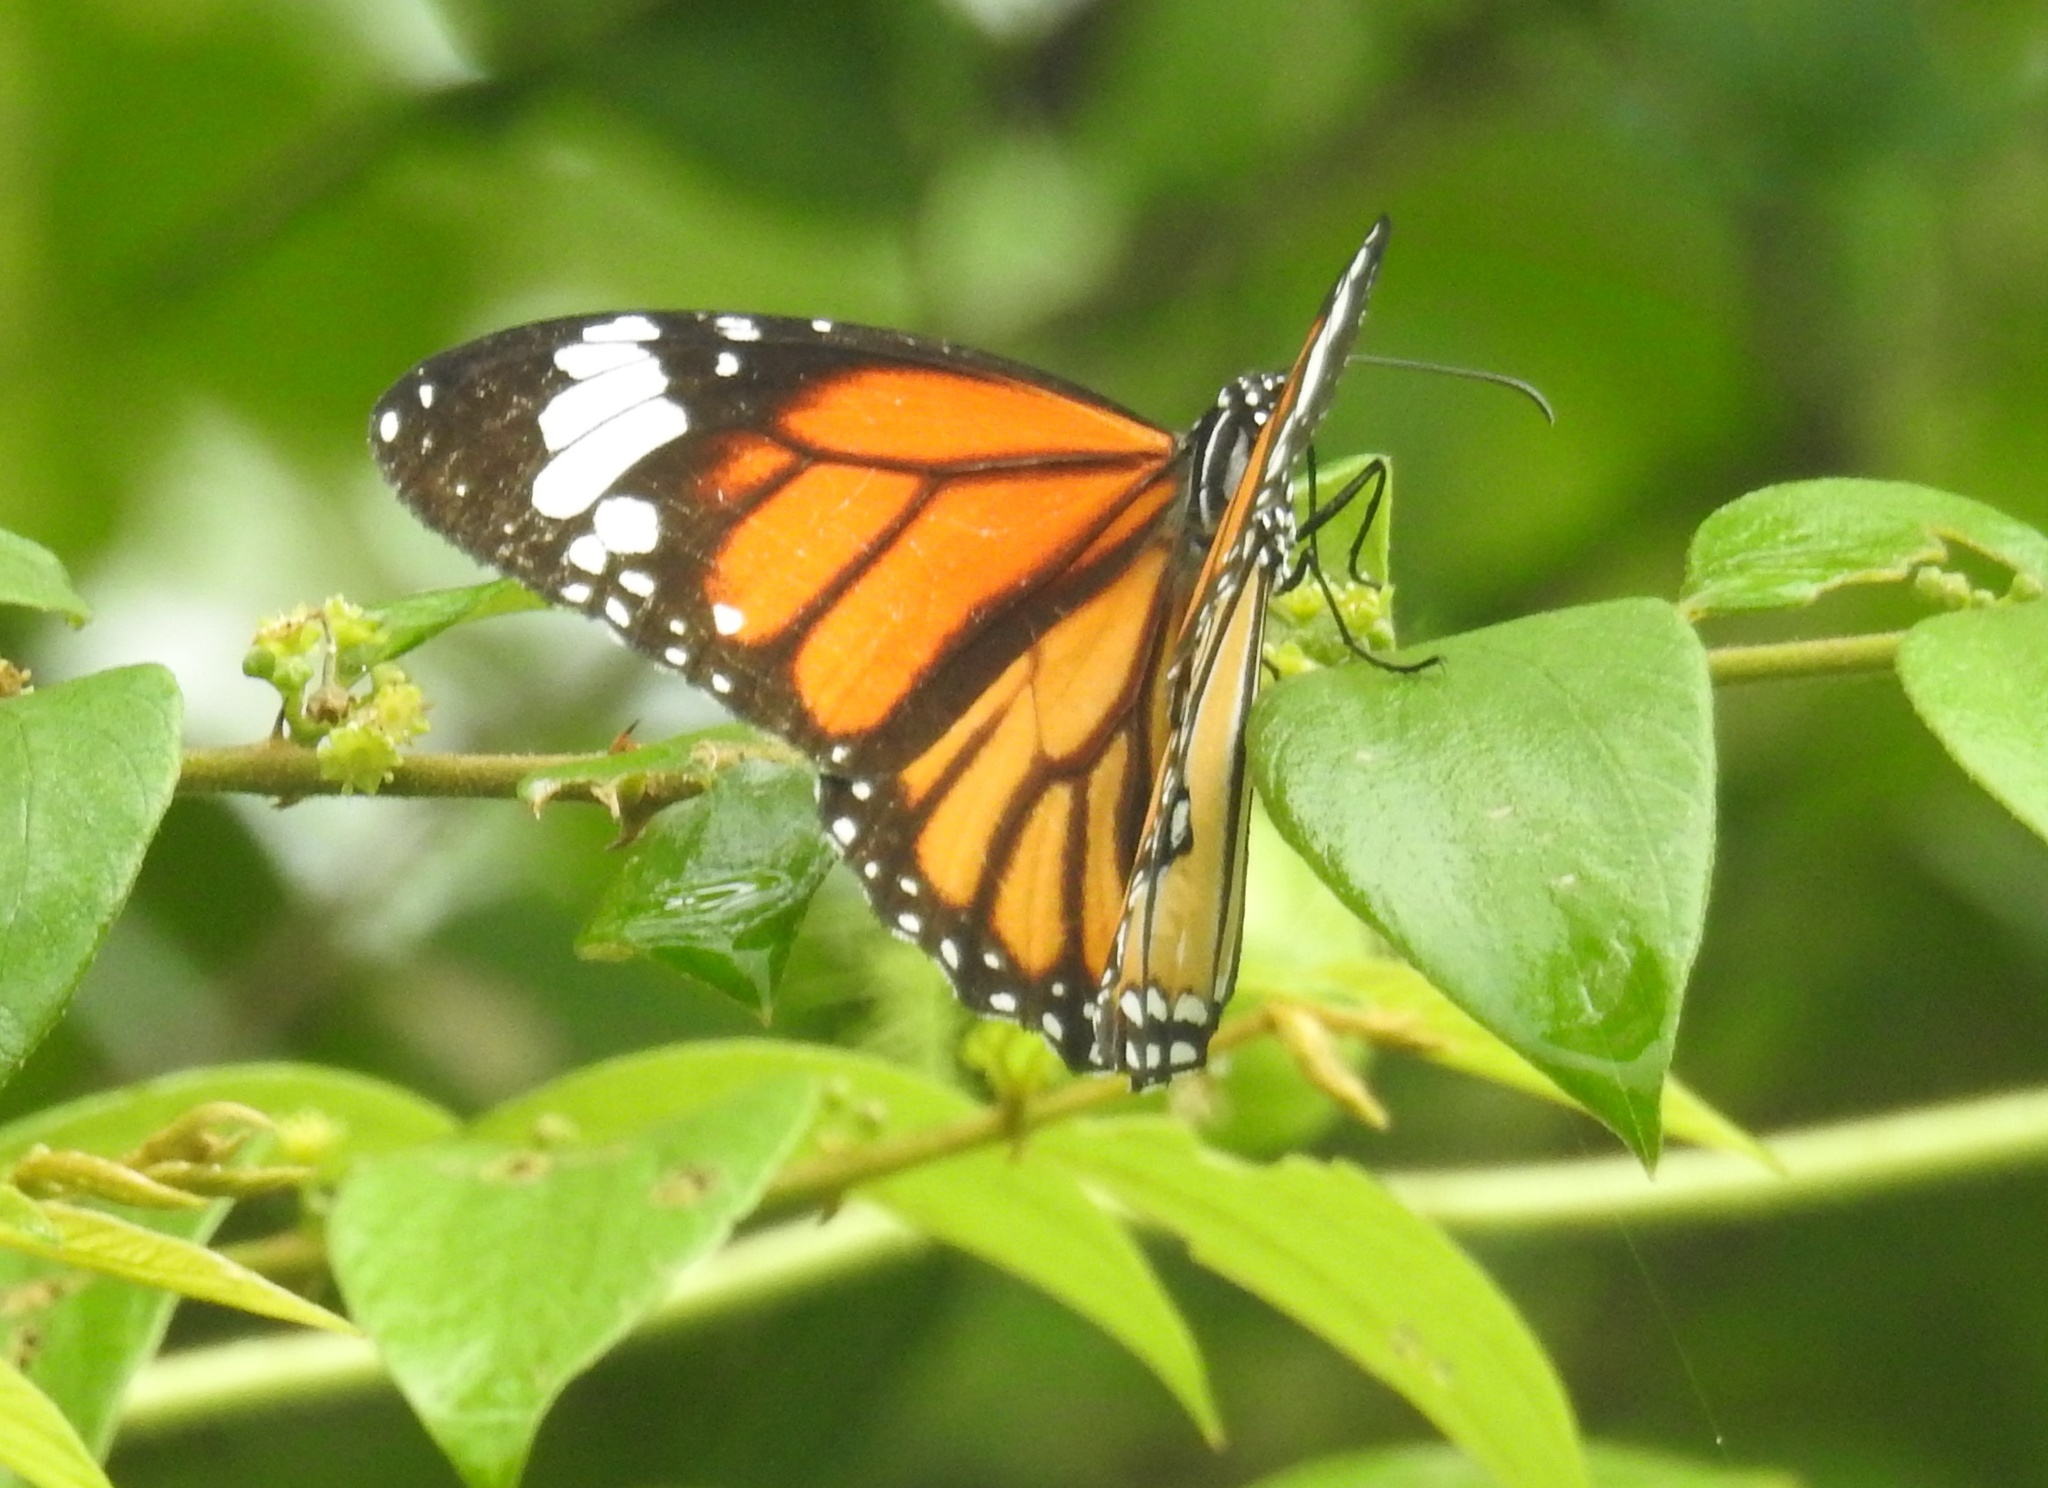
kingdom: Animalia
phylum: Arthropoda
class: Insecta
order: Lepidoptera
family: Nymphalidae
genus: Danaus
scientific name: Danaus genutia
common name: Common tiger butterfly
